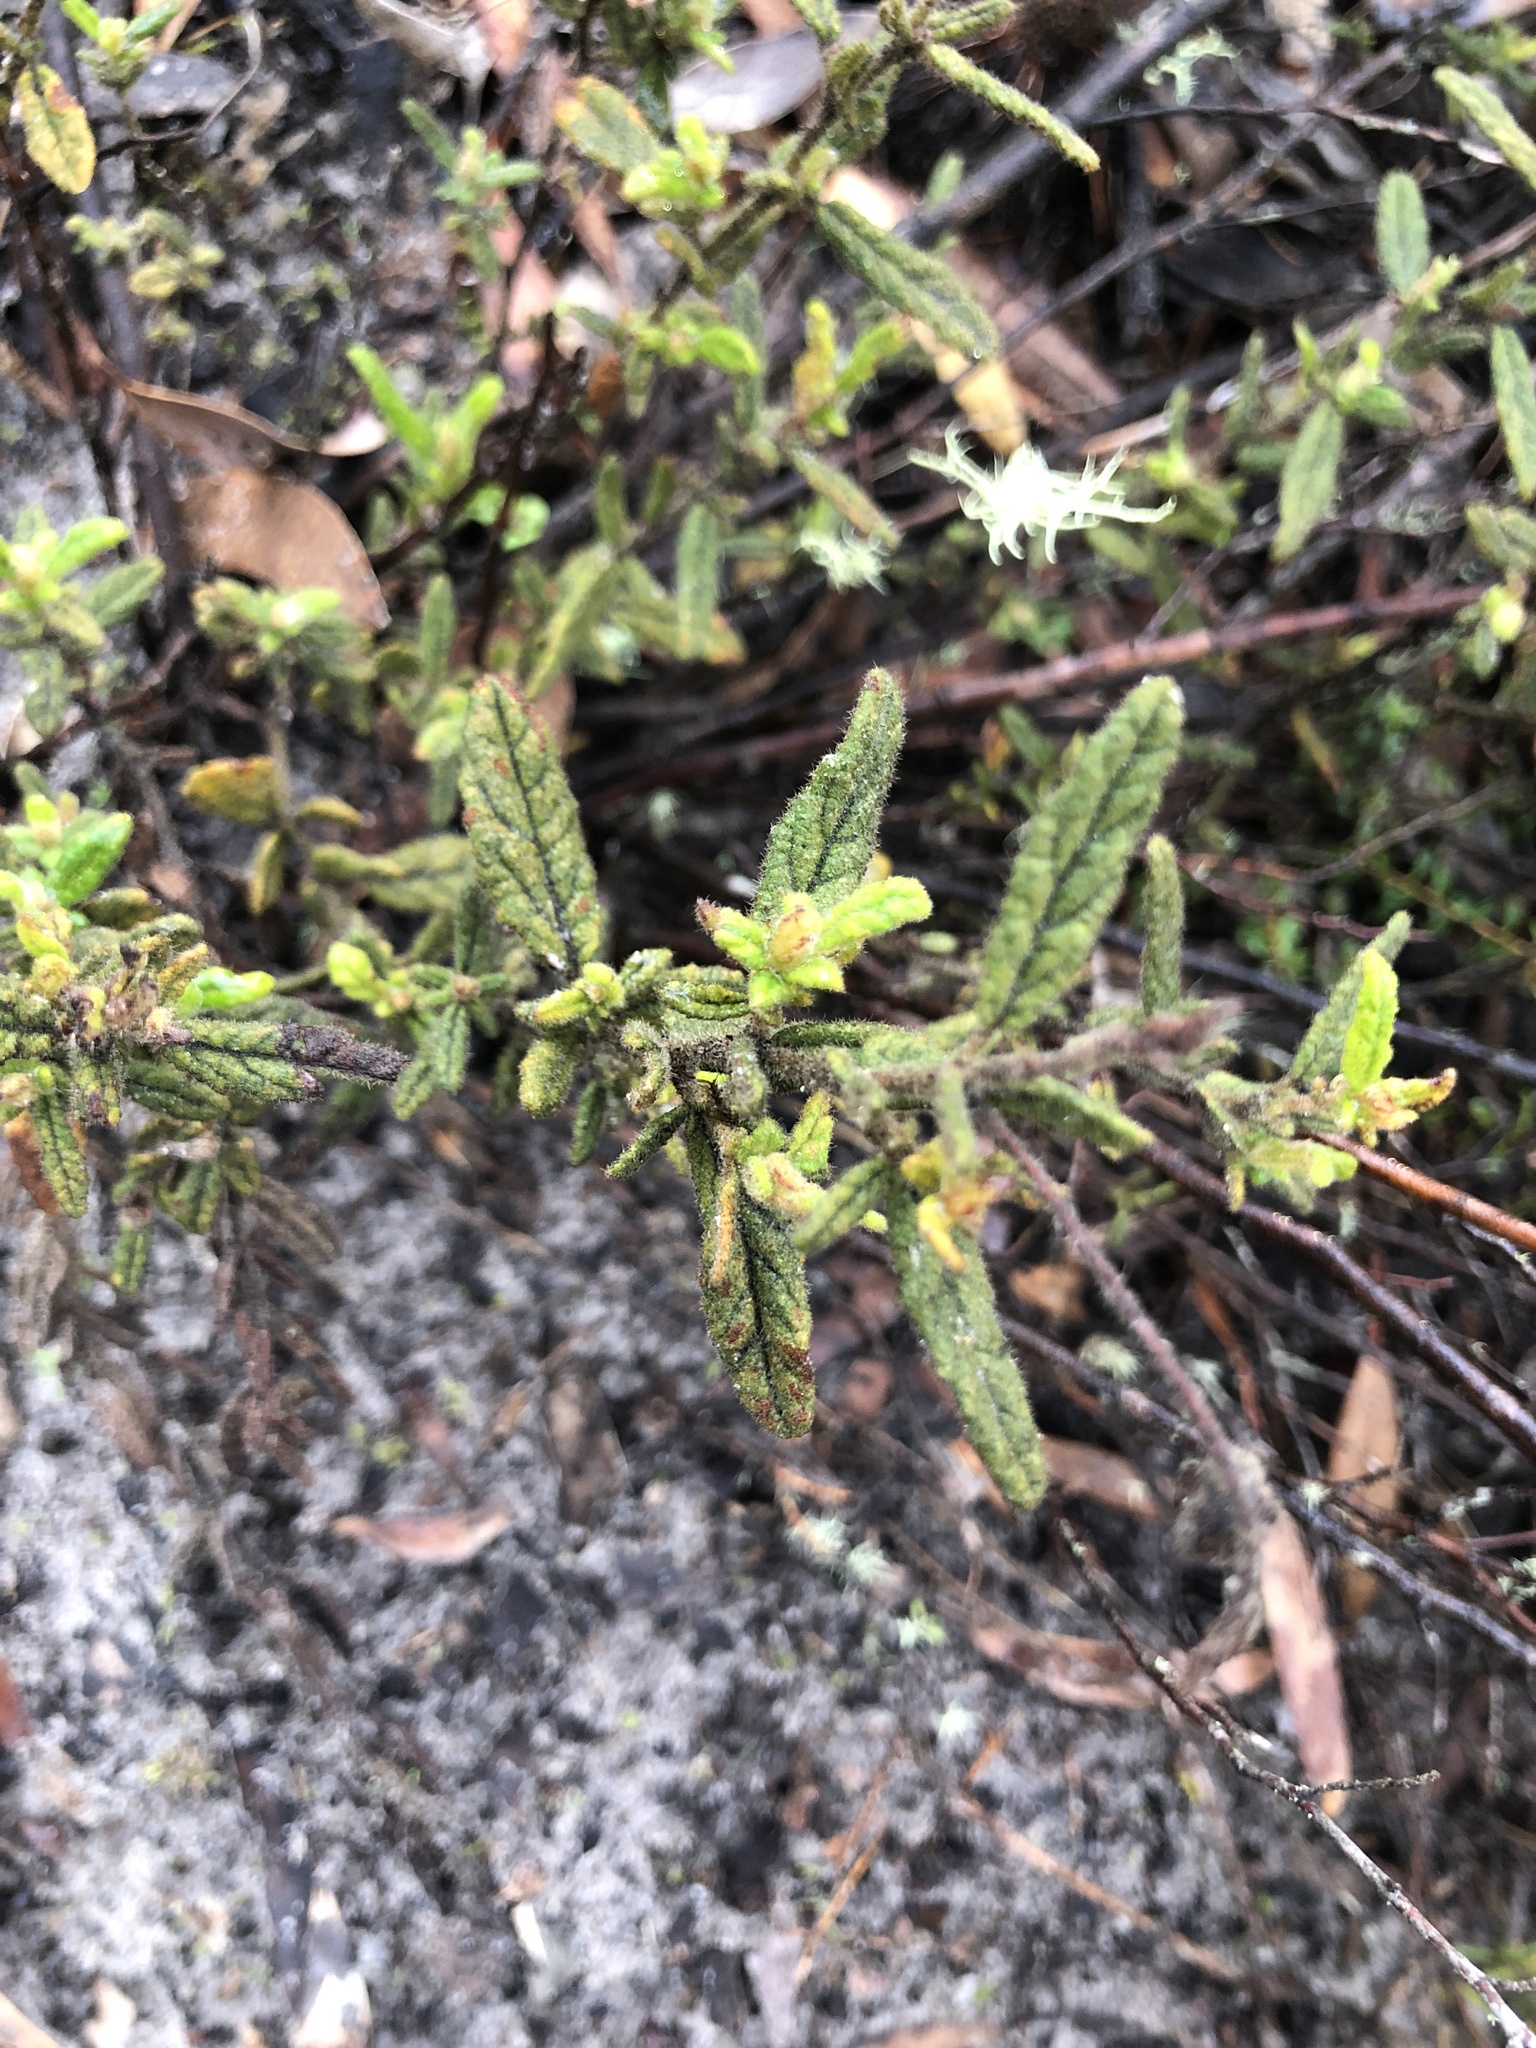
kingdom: Plantae
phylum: Tracheophyta
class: Magnoliopsida
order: Malvales
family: Malvaceae
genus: Thomasia
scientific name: Thomasia petalocalyx
